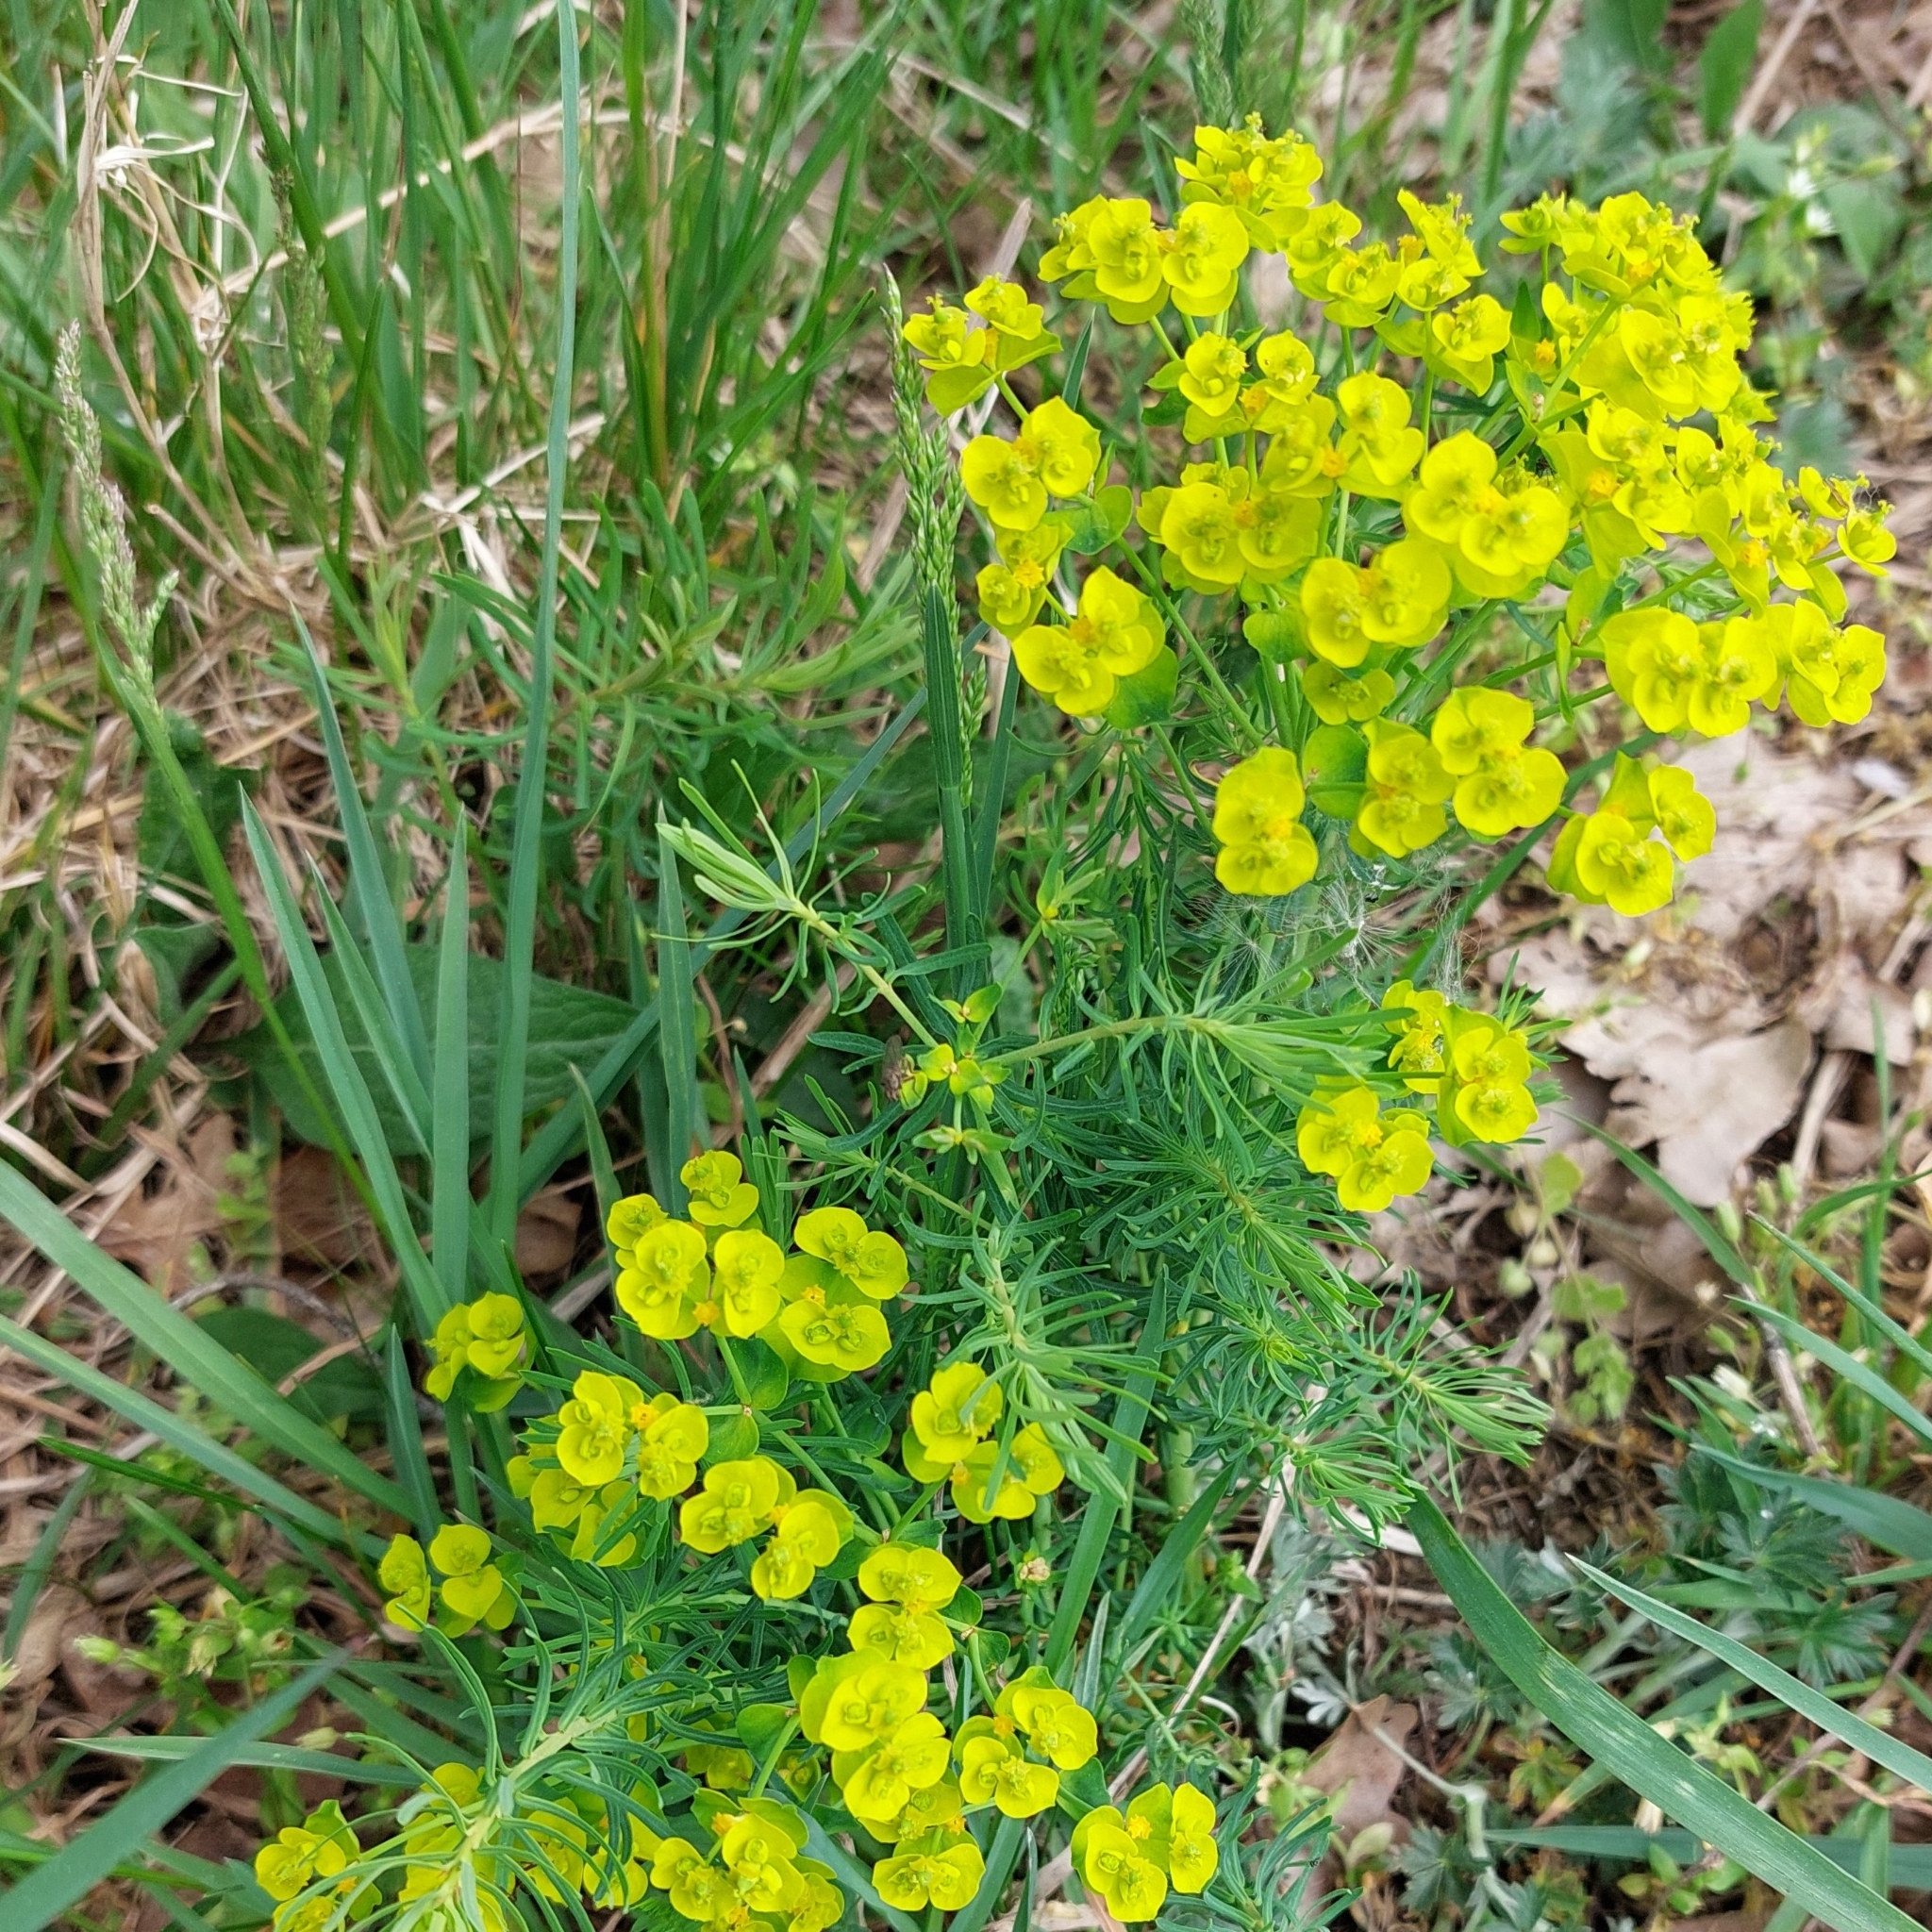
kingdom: Plantae
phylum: Tracheophyta
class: Magnoliopsida
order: Malpighiales
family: Euphorbiaceae
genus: Euphorbia
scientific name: Euphorbia cyparissias
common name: Cypress spurge
